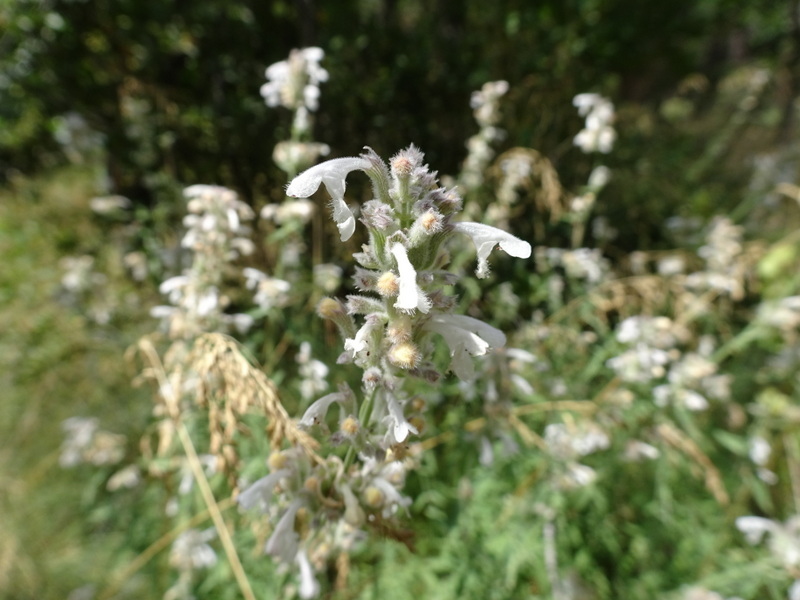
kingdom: Plantae
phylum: Tracheophyta
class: Magnoliopsida
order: Lamiales
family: Lamiaceae
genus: Nepeta
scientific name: Nepeta nepetella
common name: Lesser catmint
